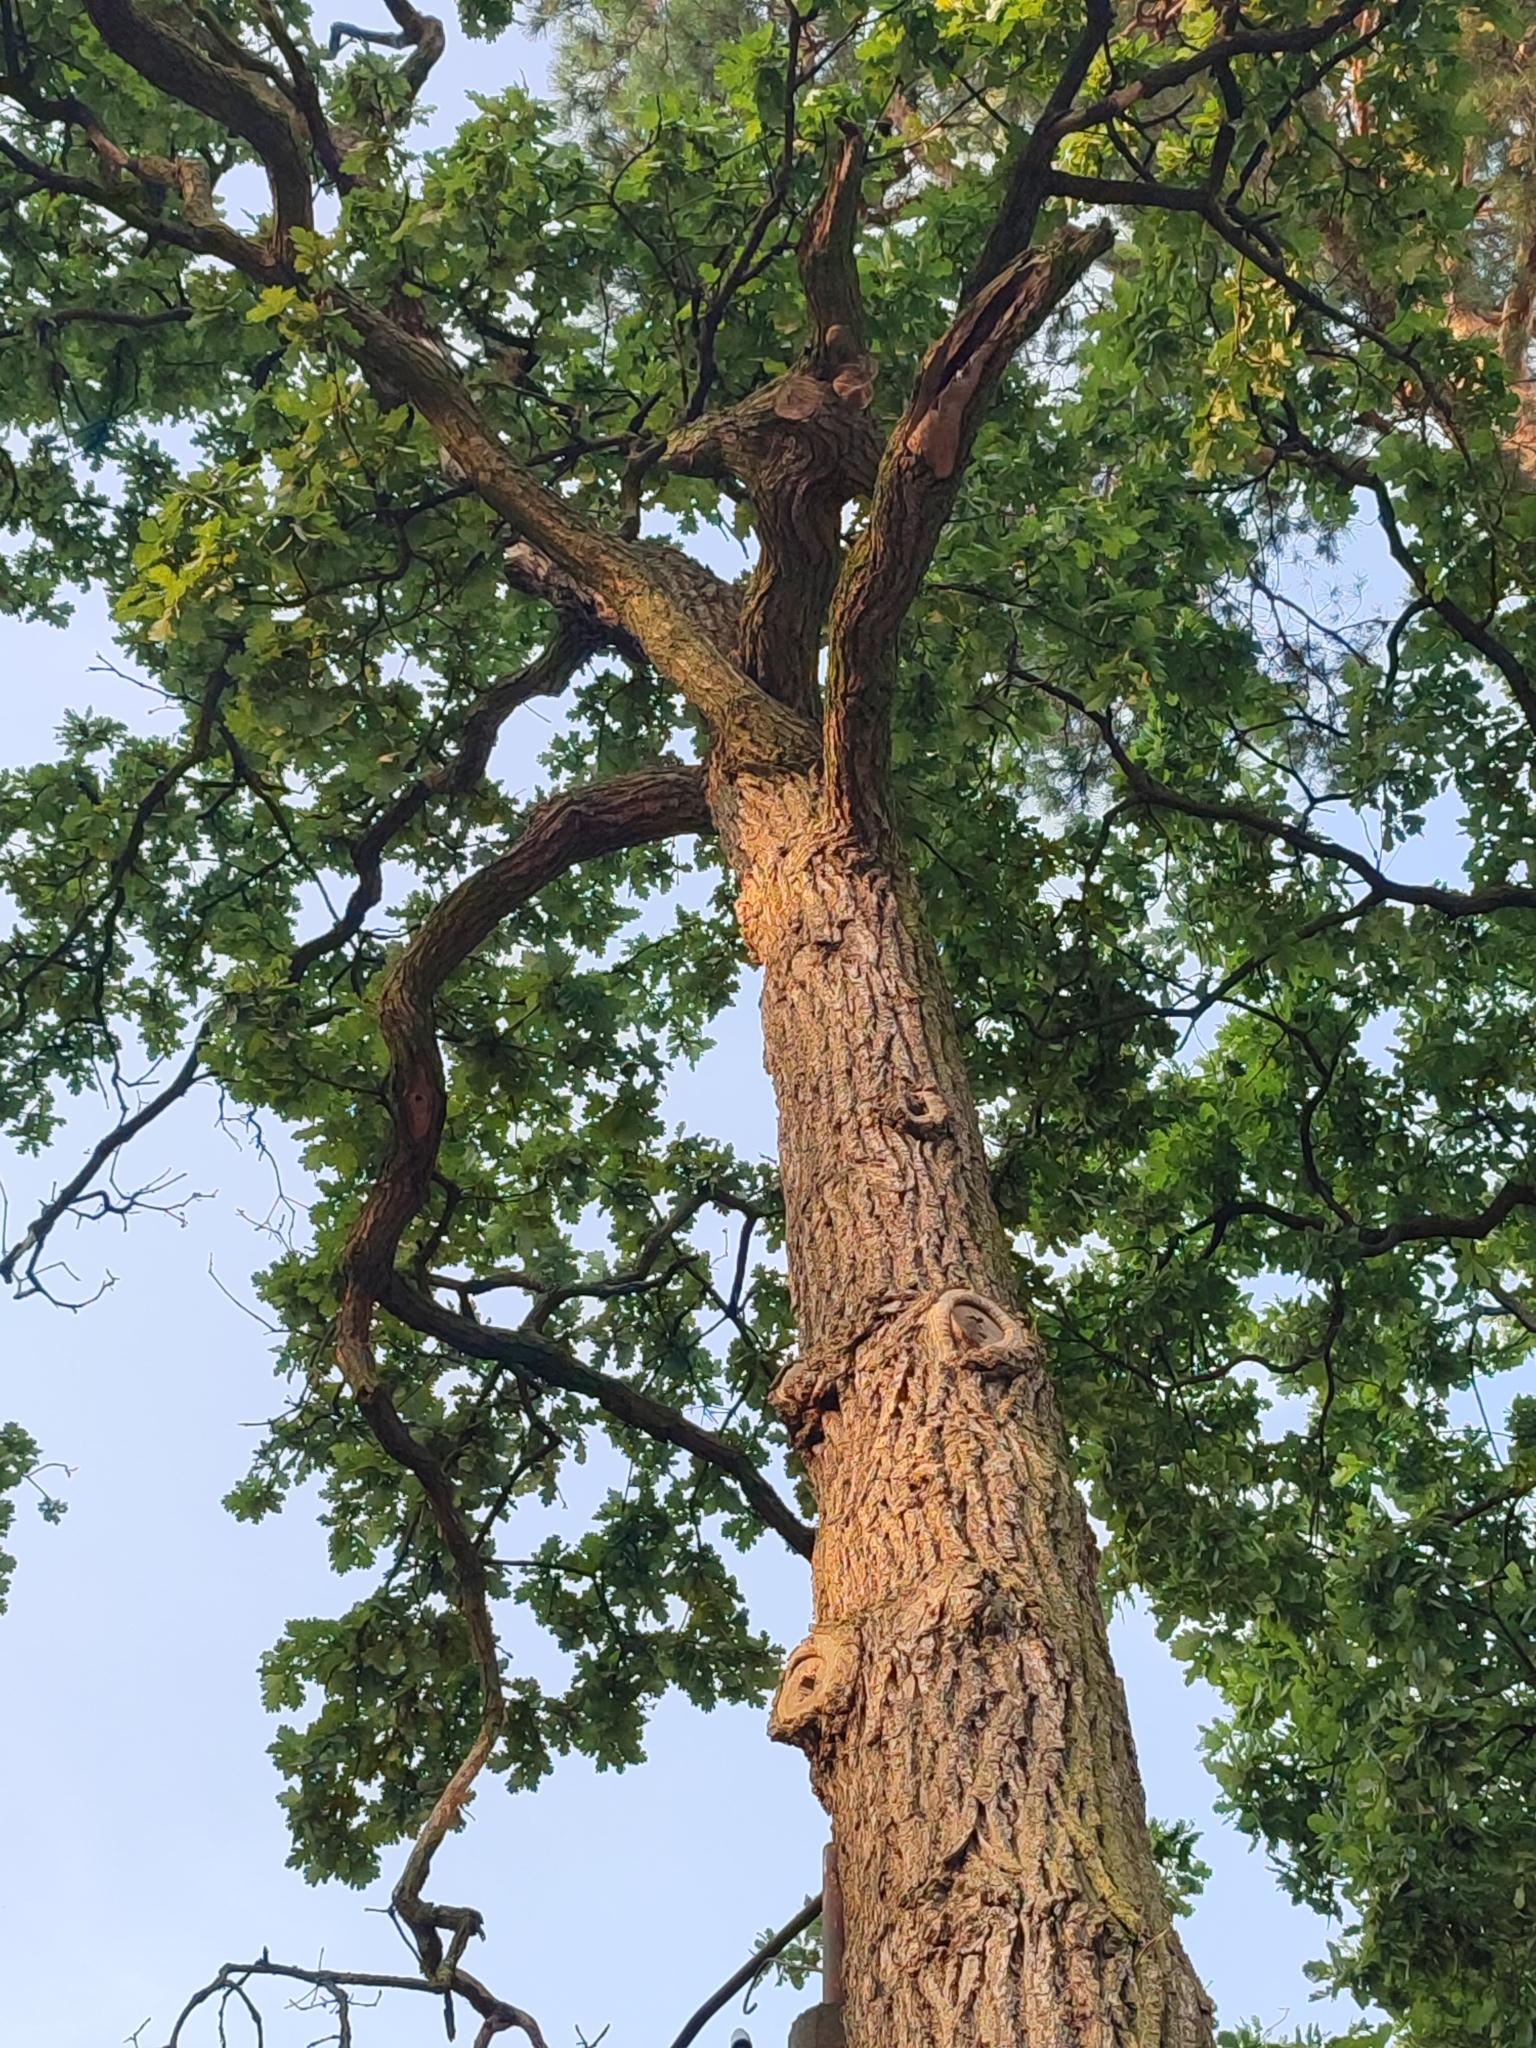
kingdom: Plantae
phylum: Tracheophyta
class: Magnoliopsida
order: Fagales
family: Fagaceae
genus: Quercus
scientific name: Quercus robur
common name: Pedunculate oak
